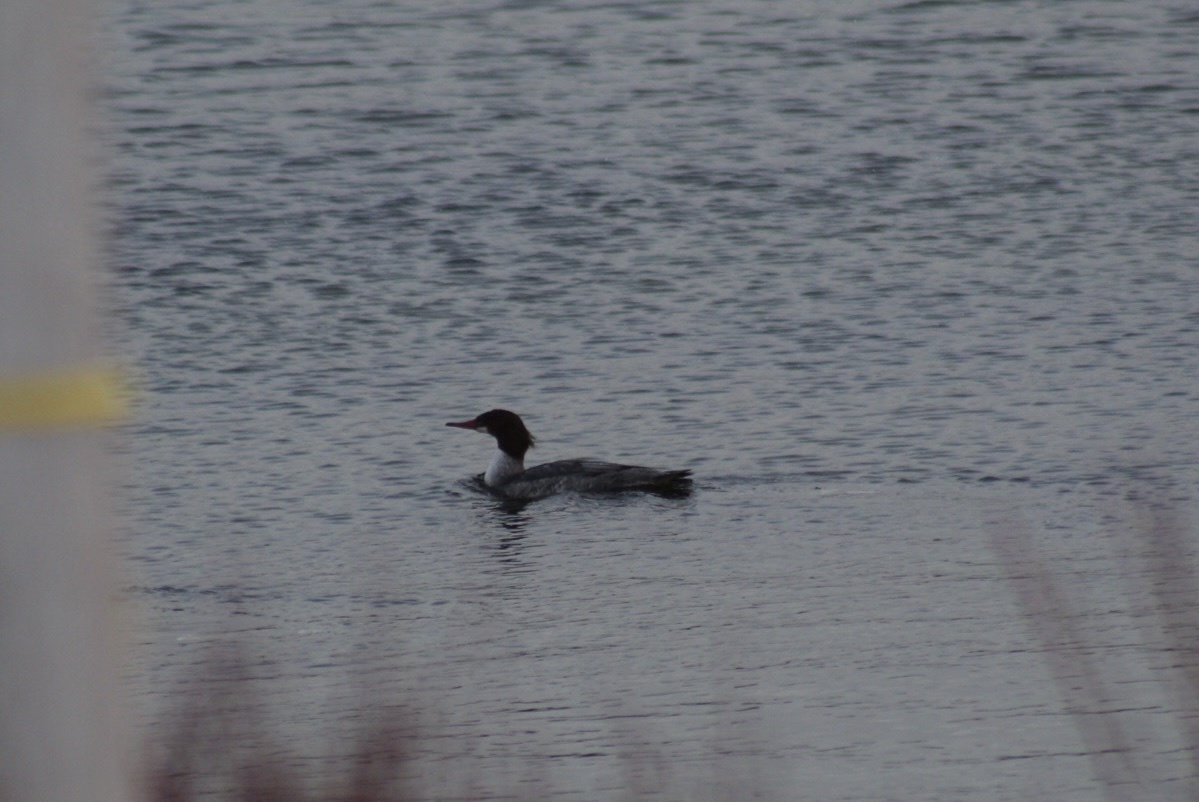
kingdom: Animalia
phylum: Chordata
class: Aves
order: Anseriformes
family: Anatidae
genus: Mergus
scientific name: Mergus merganser
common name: Common merganser
